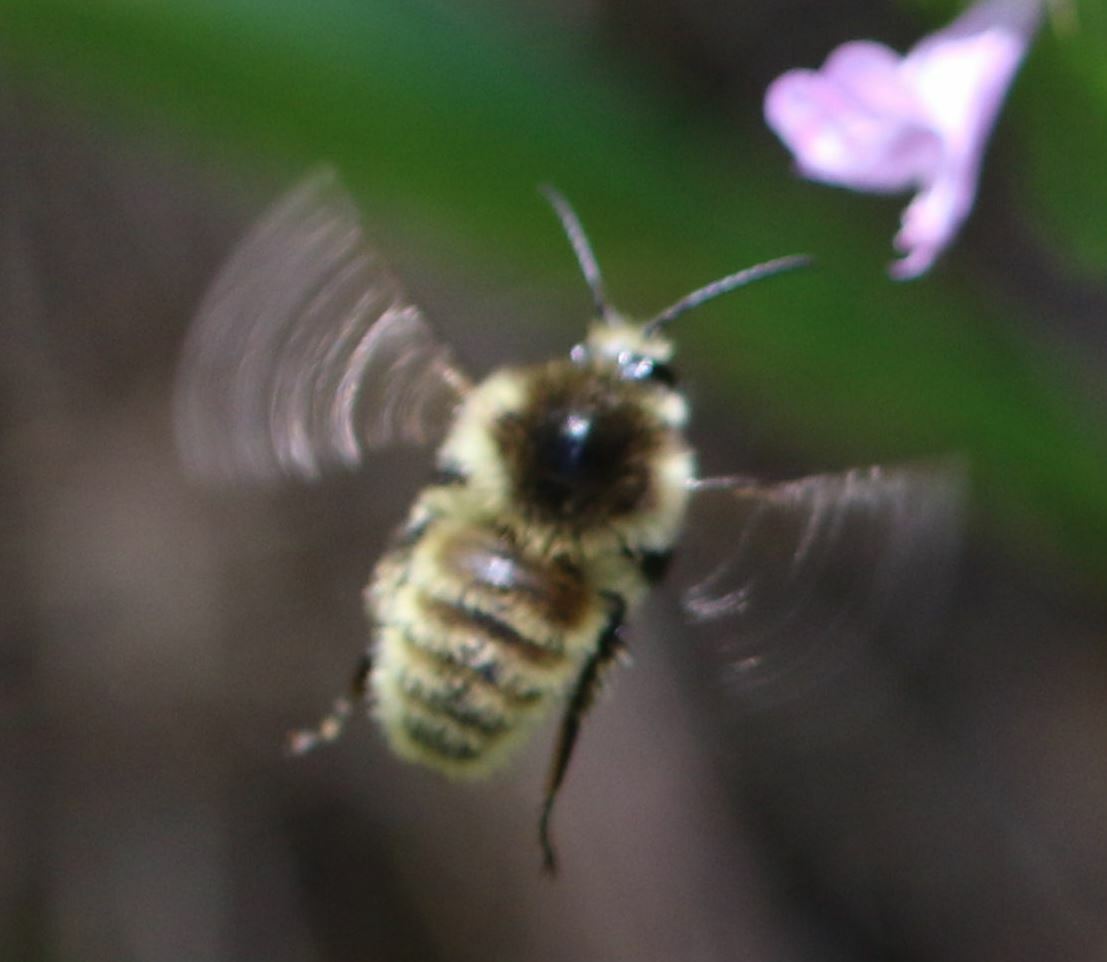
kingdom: Animalia
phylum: Arthropoda
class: Insecta
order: Hymenoptera
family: Apidae
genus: Bombus
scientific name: Bombus humilis
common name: Brown-banded carder-bee
